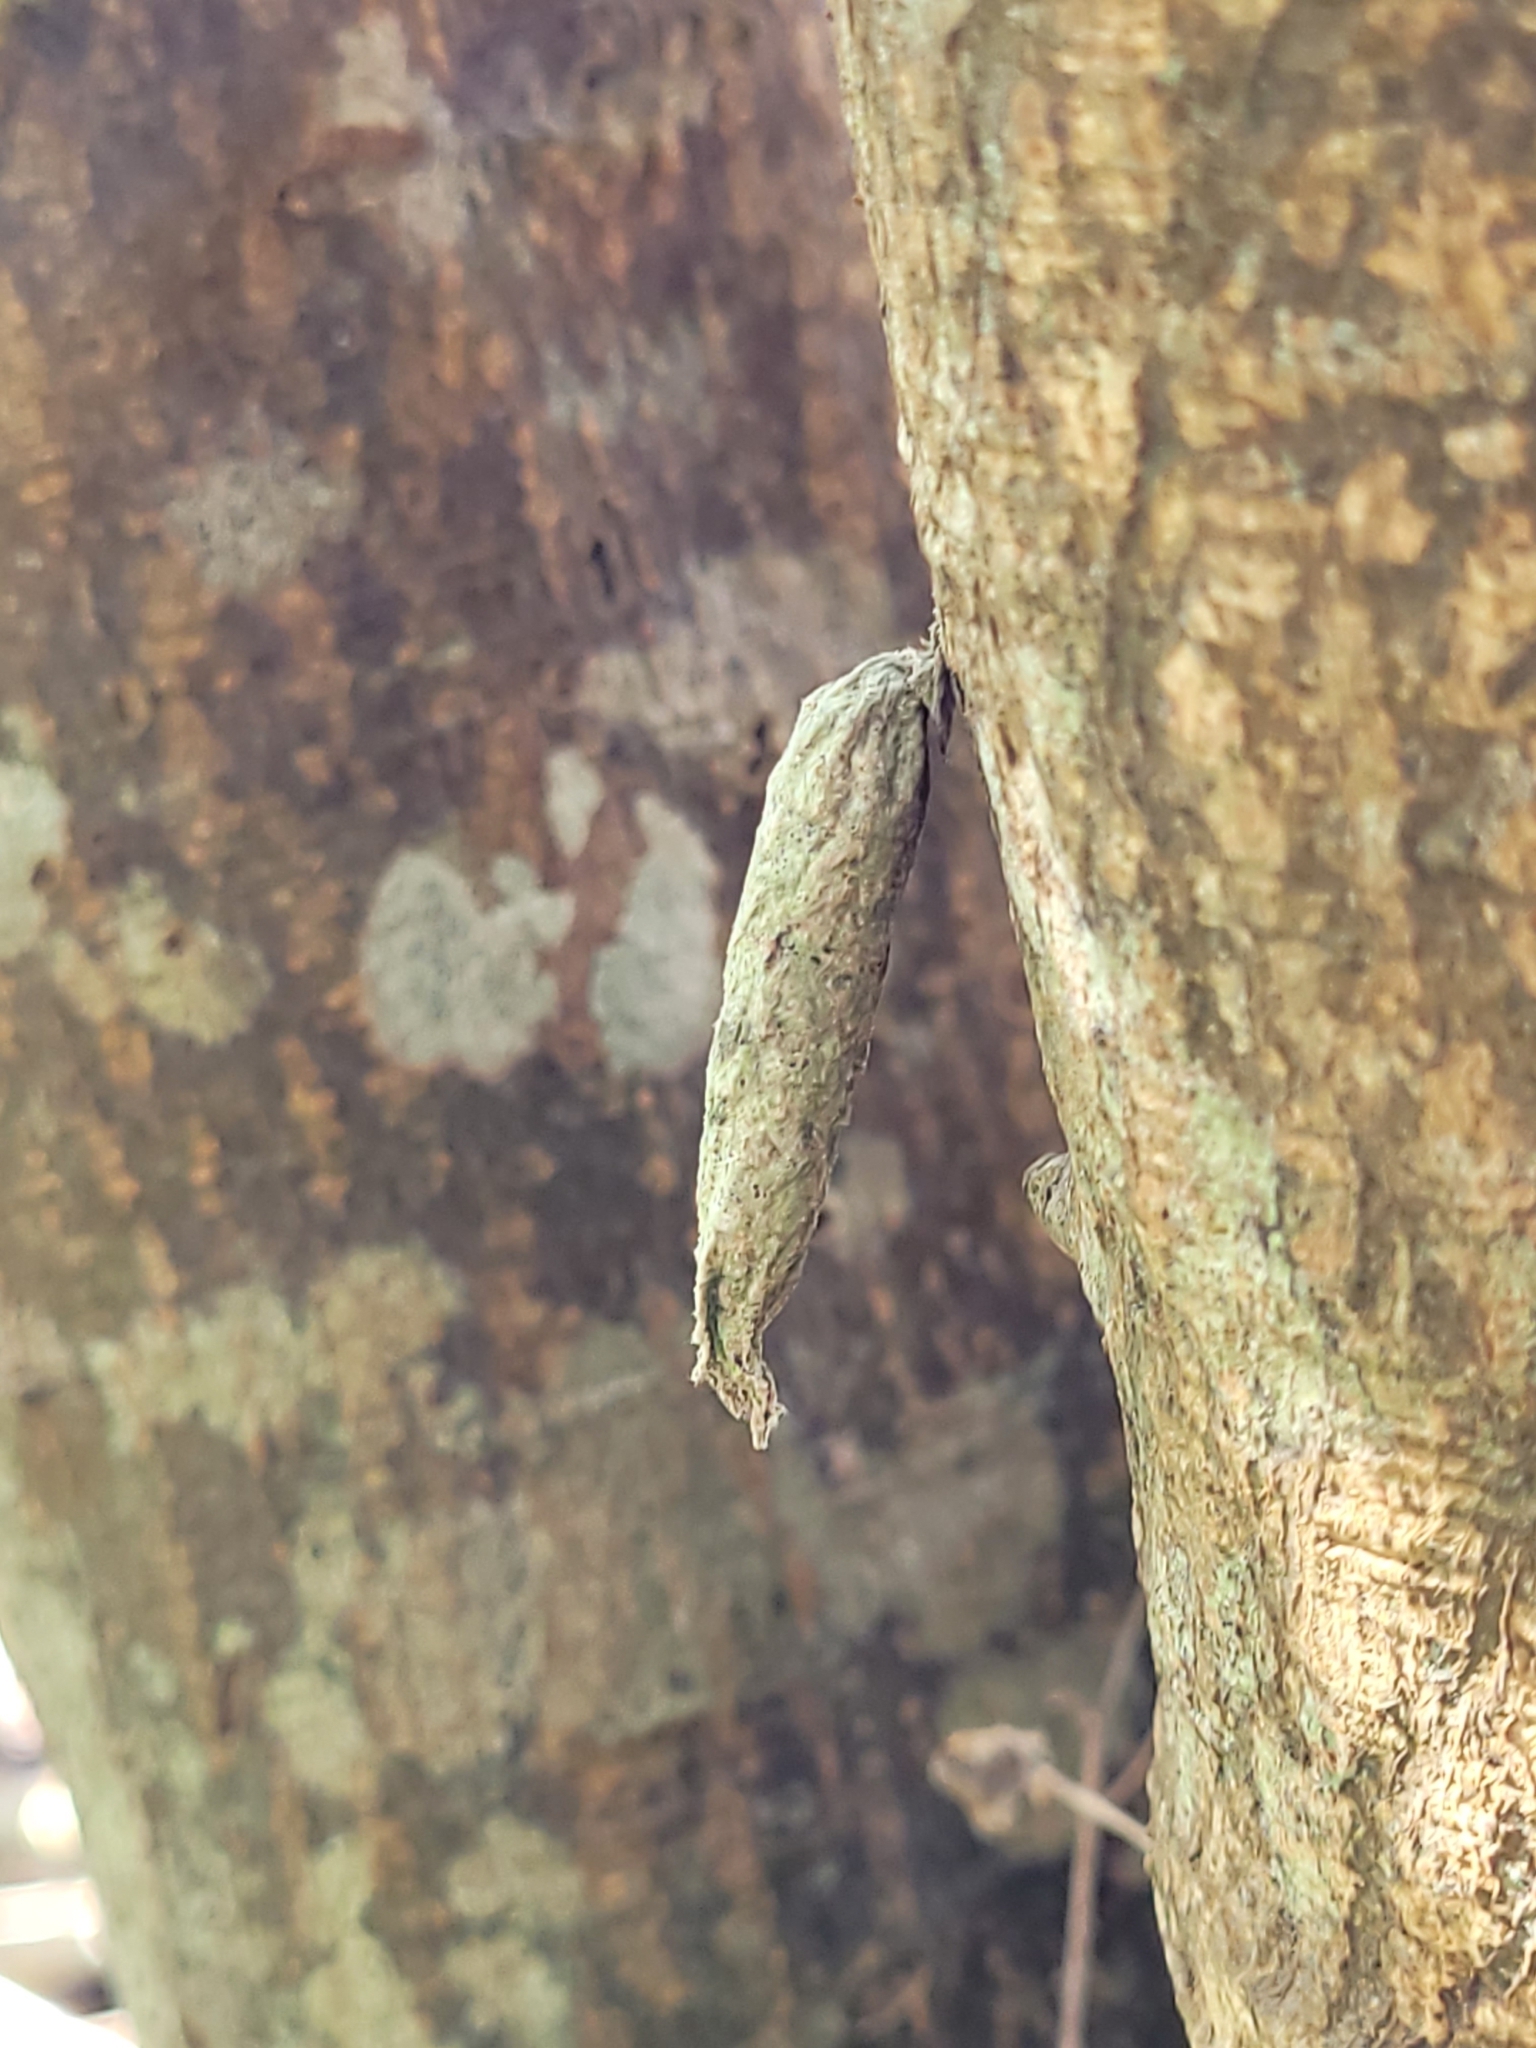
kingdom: Animalia
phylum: Arthropoda
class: Insecta
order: Lepidoptera
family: Psychidae
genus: Liothula
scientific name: Liothula omnivora
